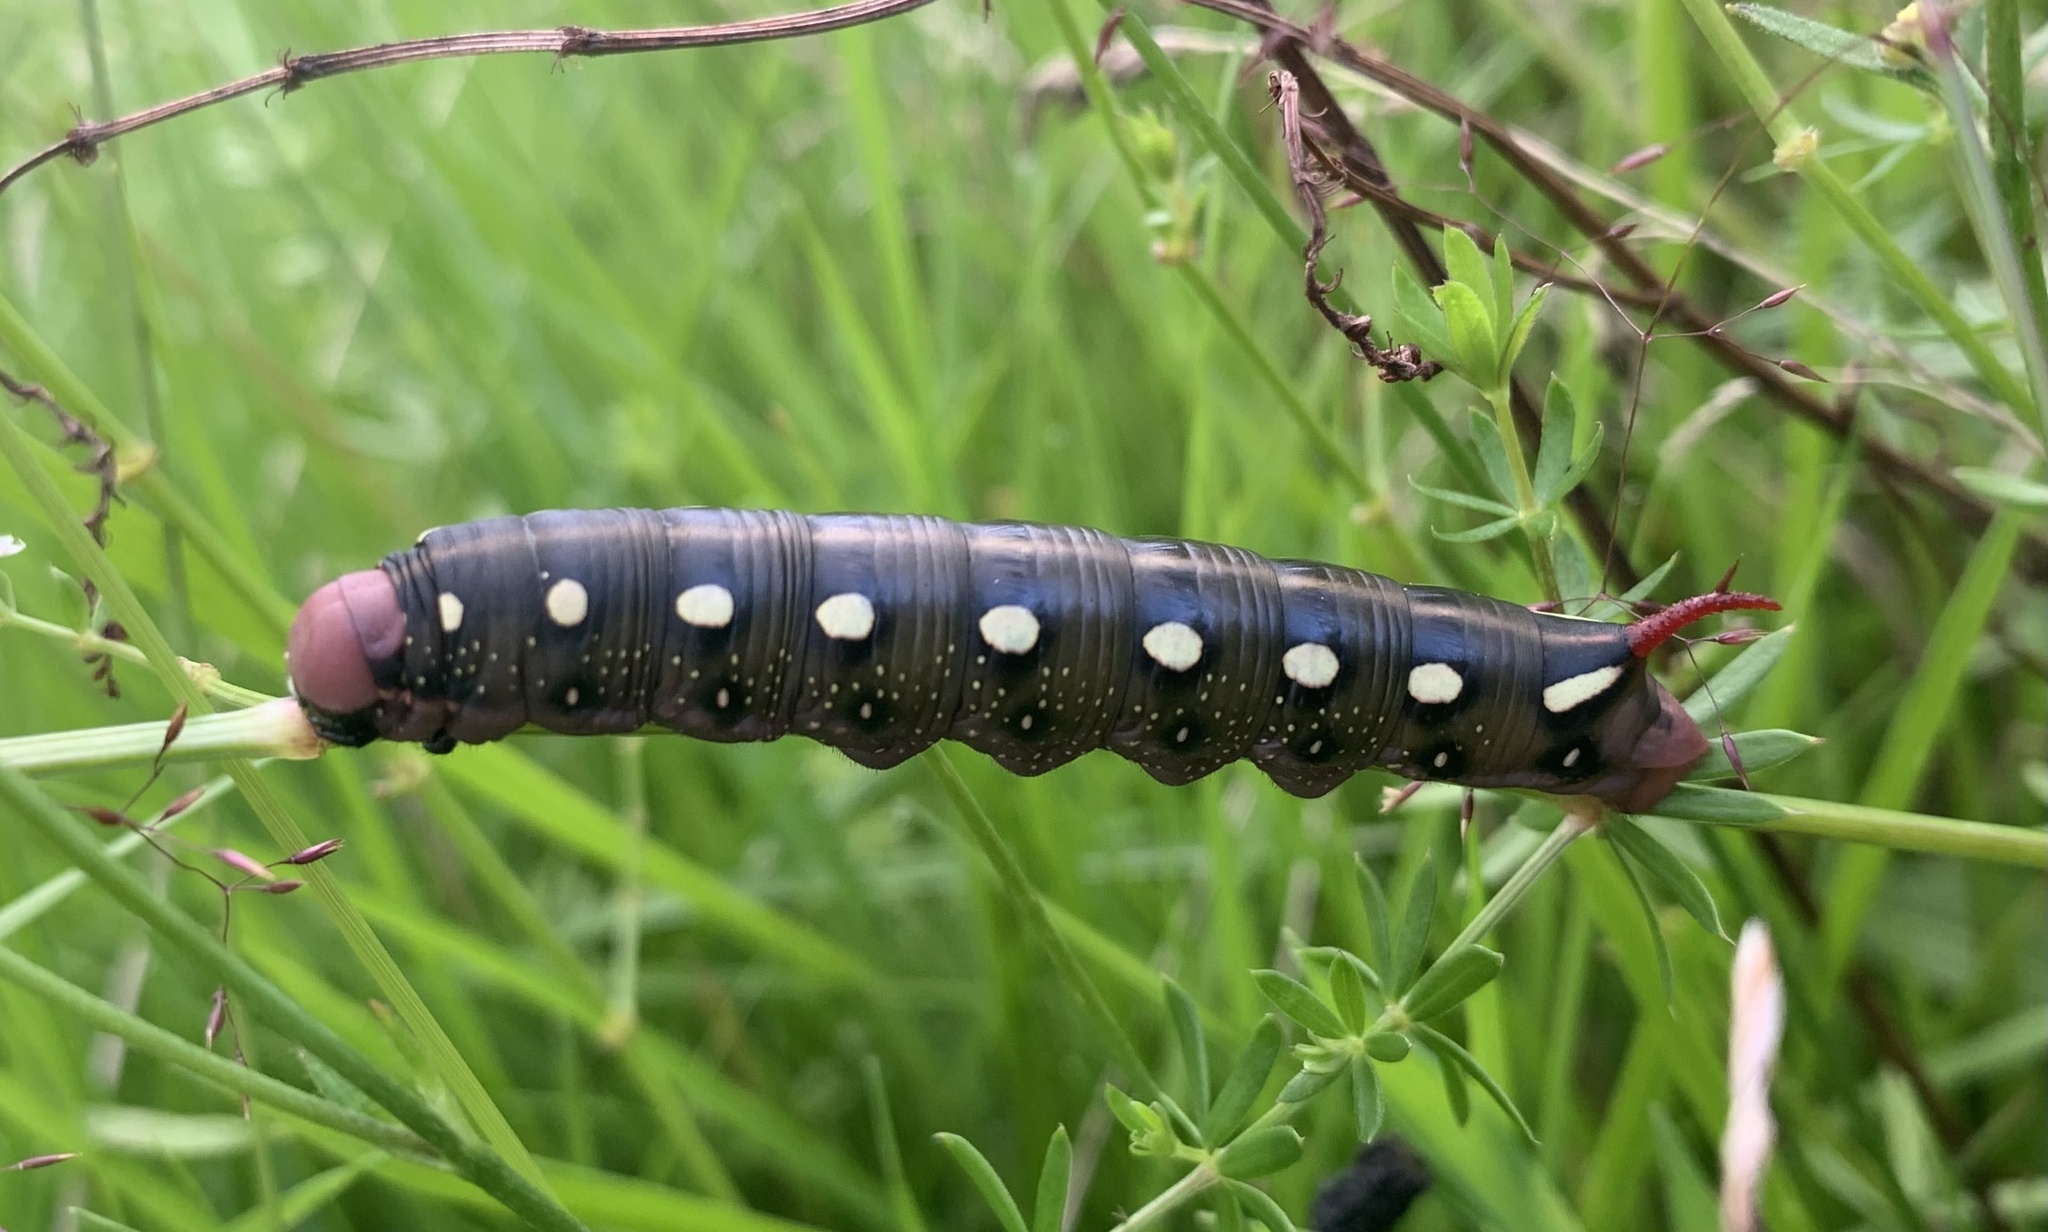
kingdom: Animalia
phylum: Arthropoda
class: Insecta
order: Lepidoptera
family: Sphingidae
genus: Hyles
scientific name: Hyles gallii
